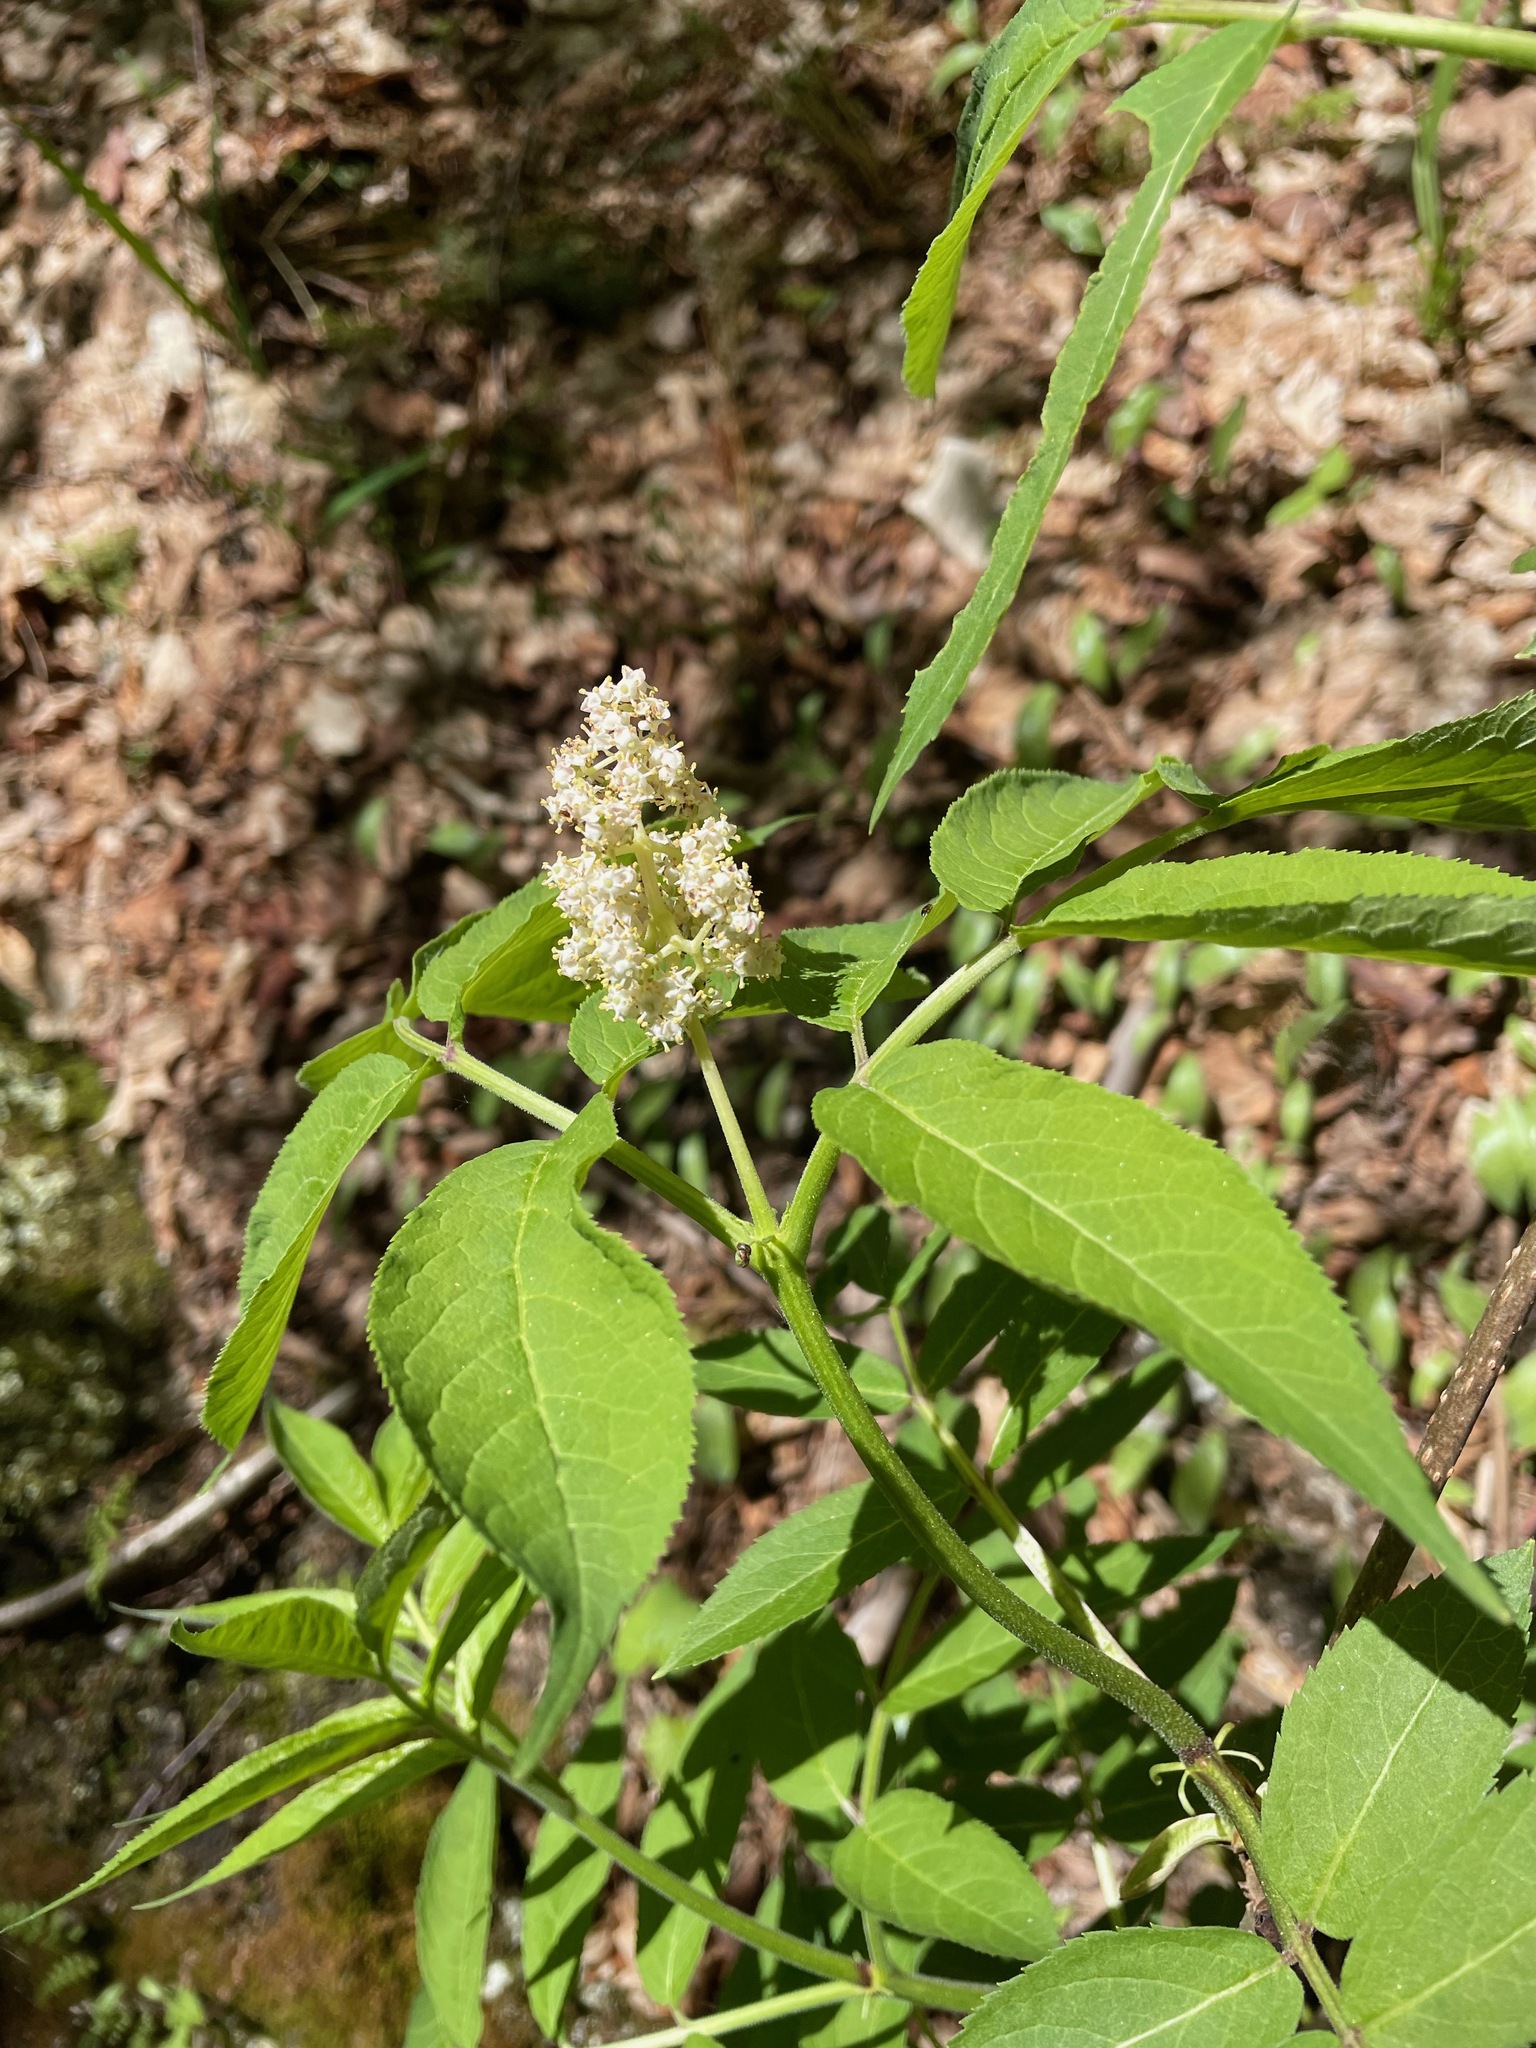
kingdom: Plantae
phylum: Tracheophyta
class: Magnoliopsida
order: Dipsacales
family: Viburnaceae
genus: Sambucus
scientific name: Sambucus racemosa
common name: Red-berried elder
